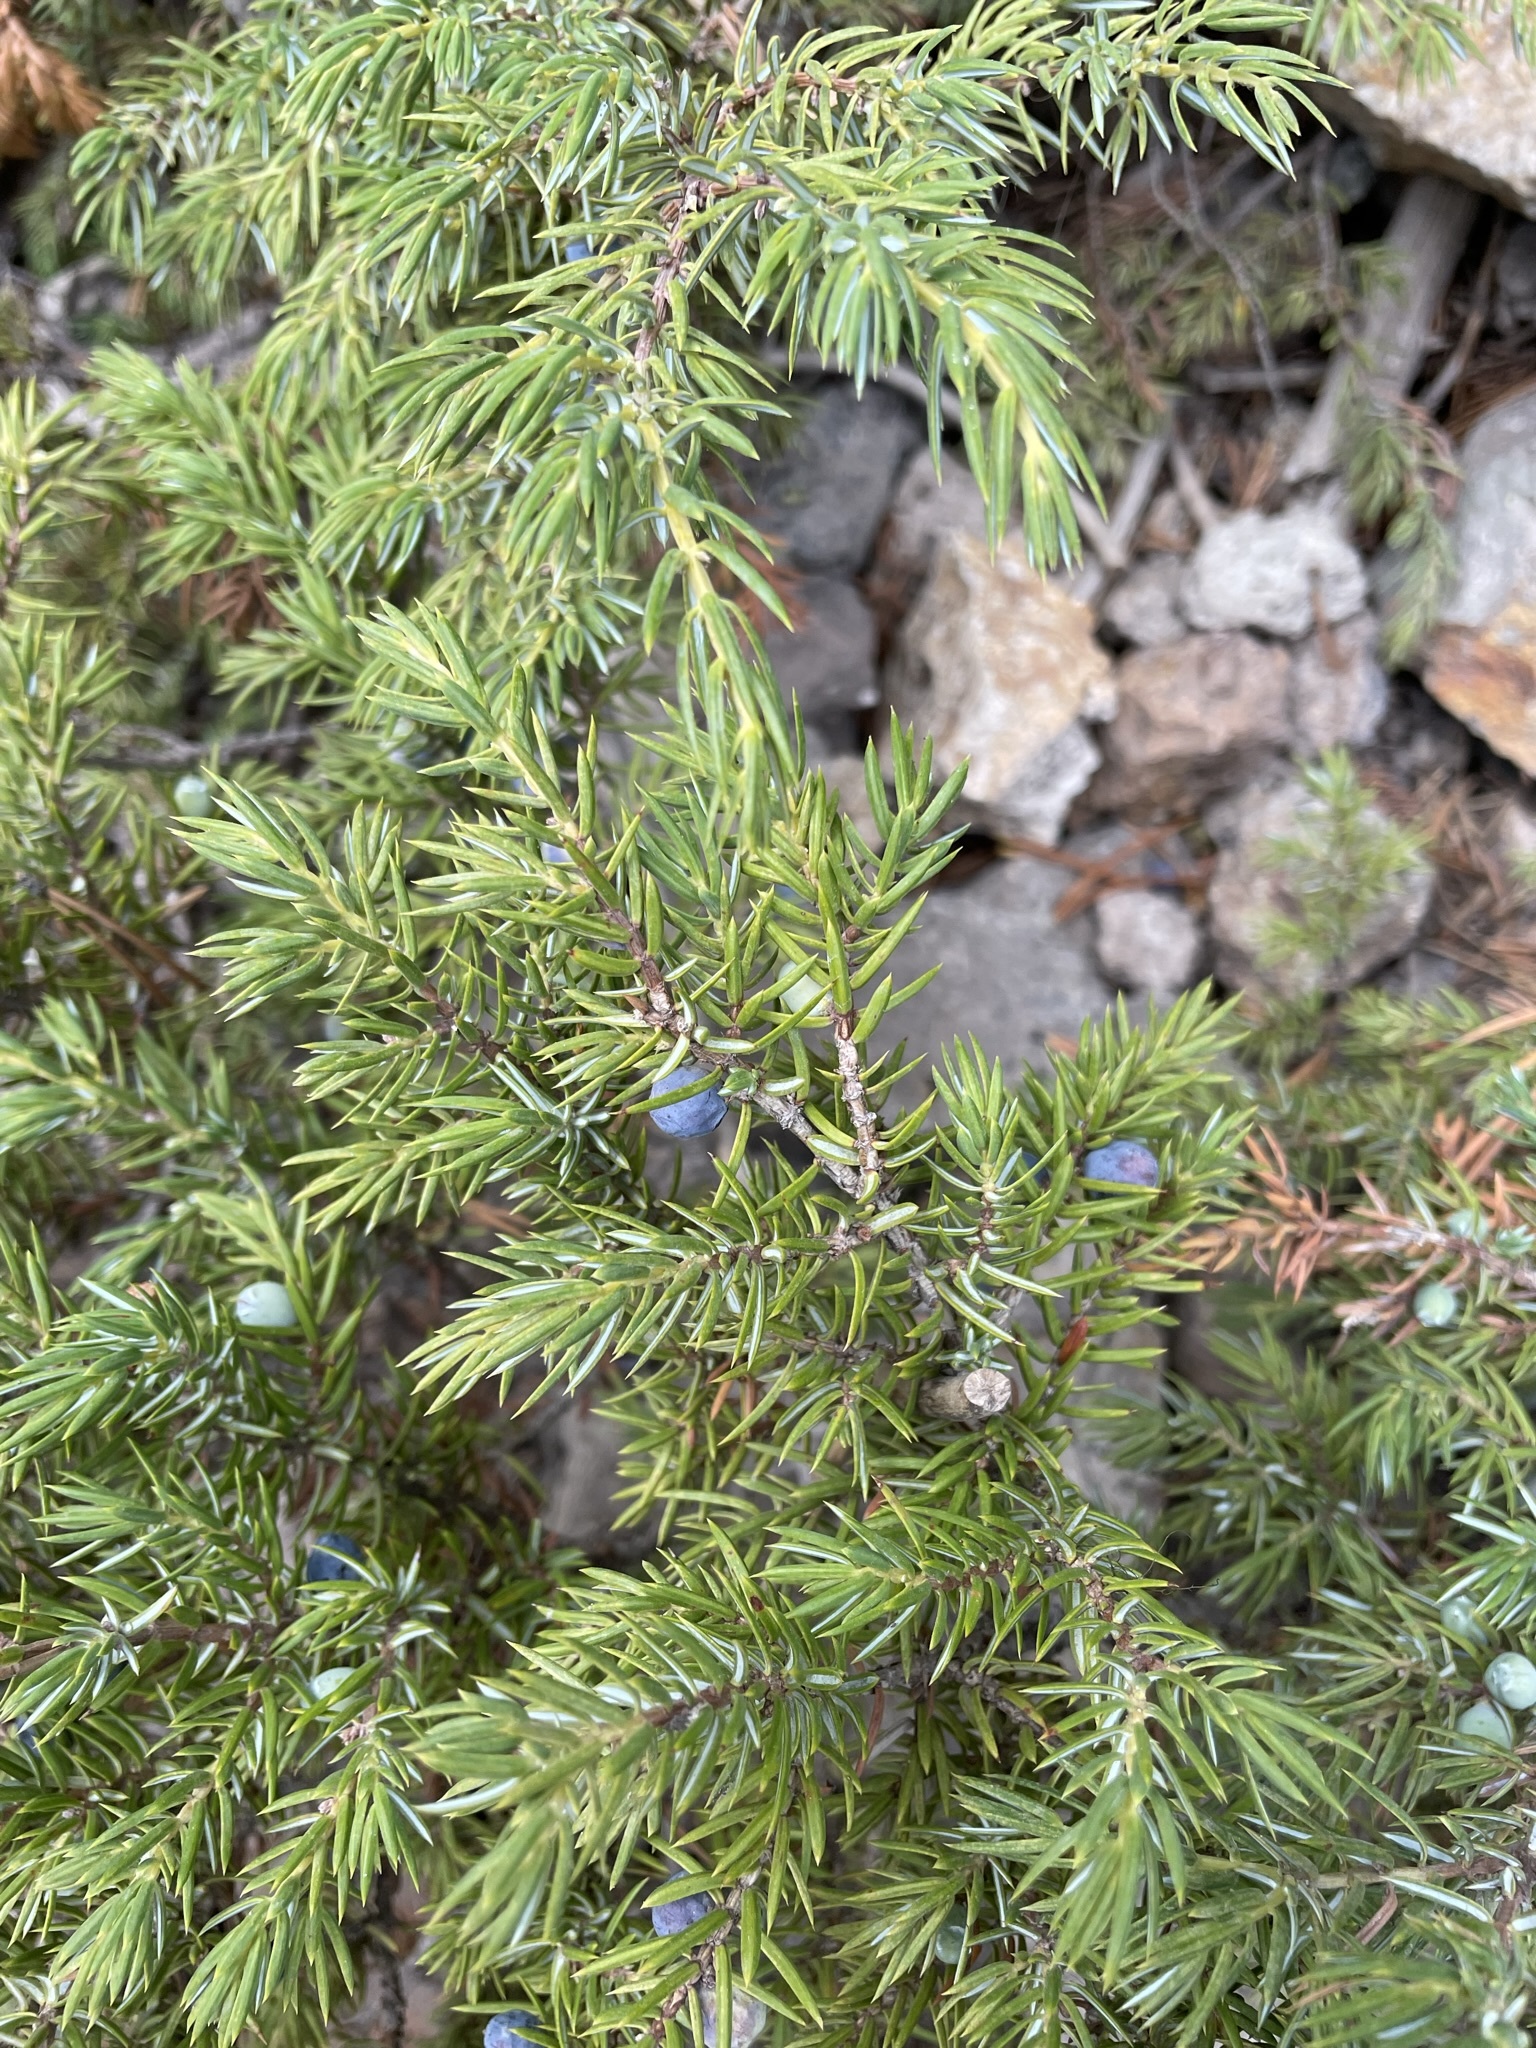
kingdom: Plantae
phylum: Tracheophyta
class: Pinopsida
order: Pinales
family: Cupressaceae
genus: Juniperus
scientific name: Juniperus communis
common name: Common juniper
